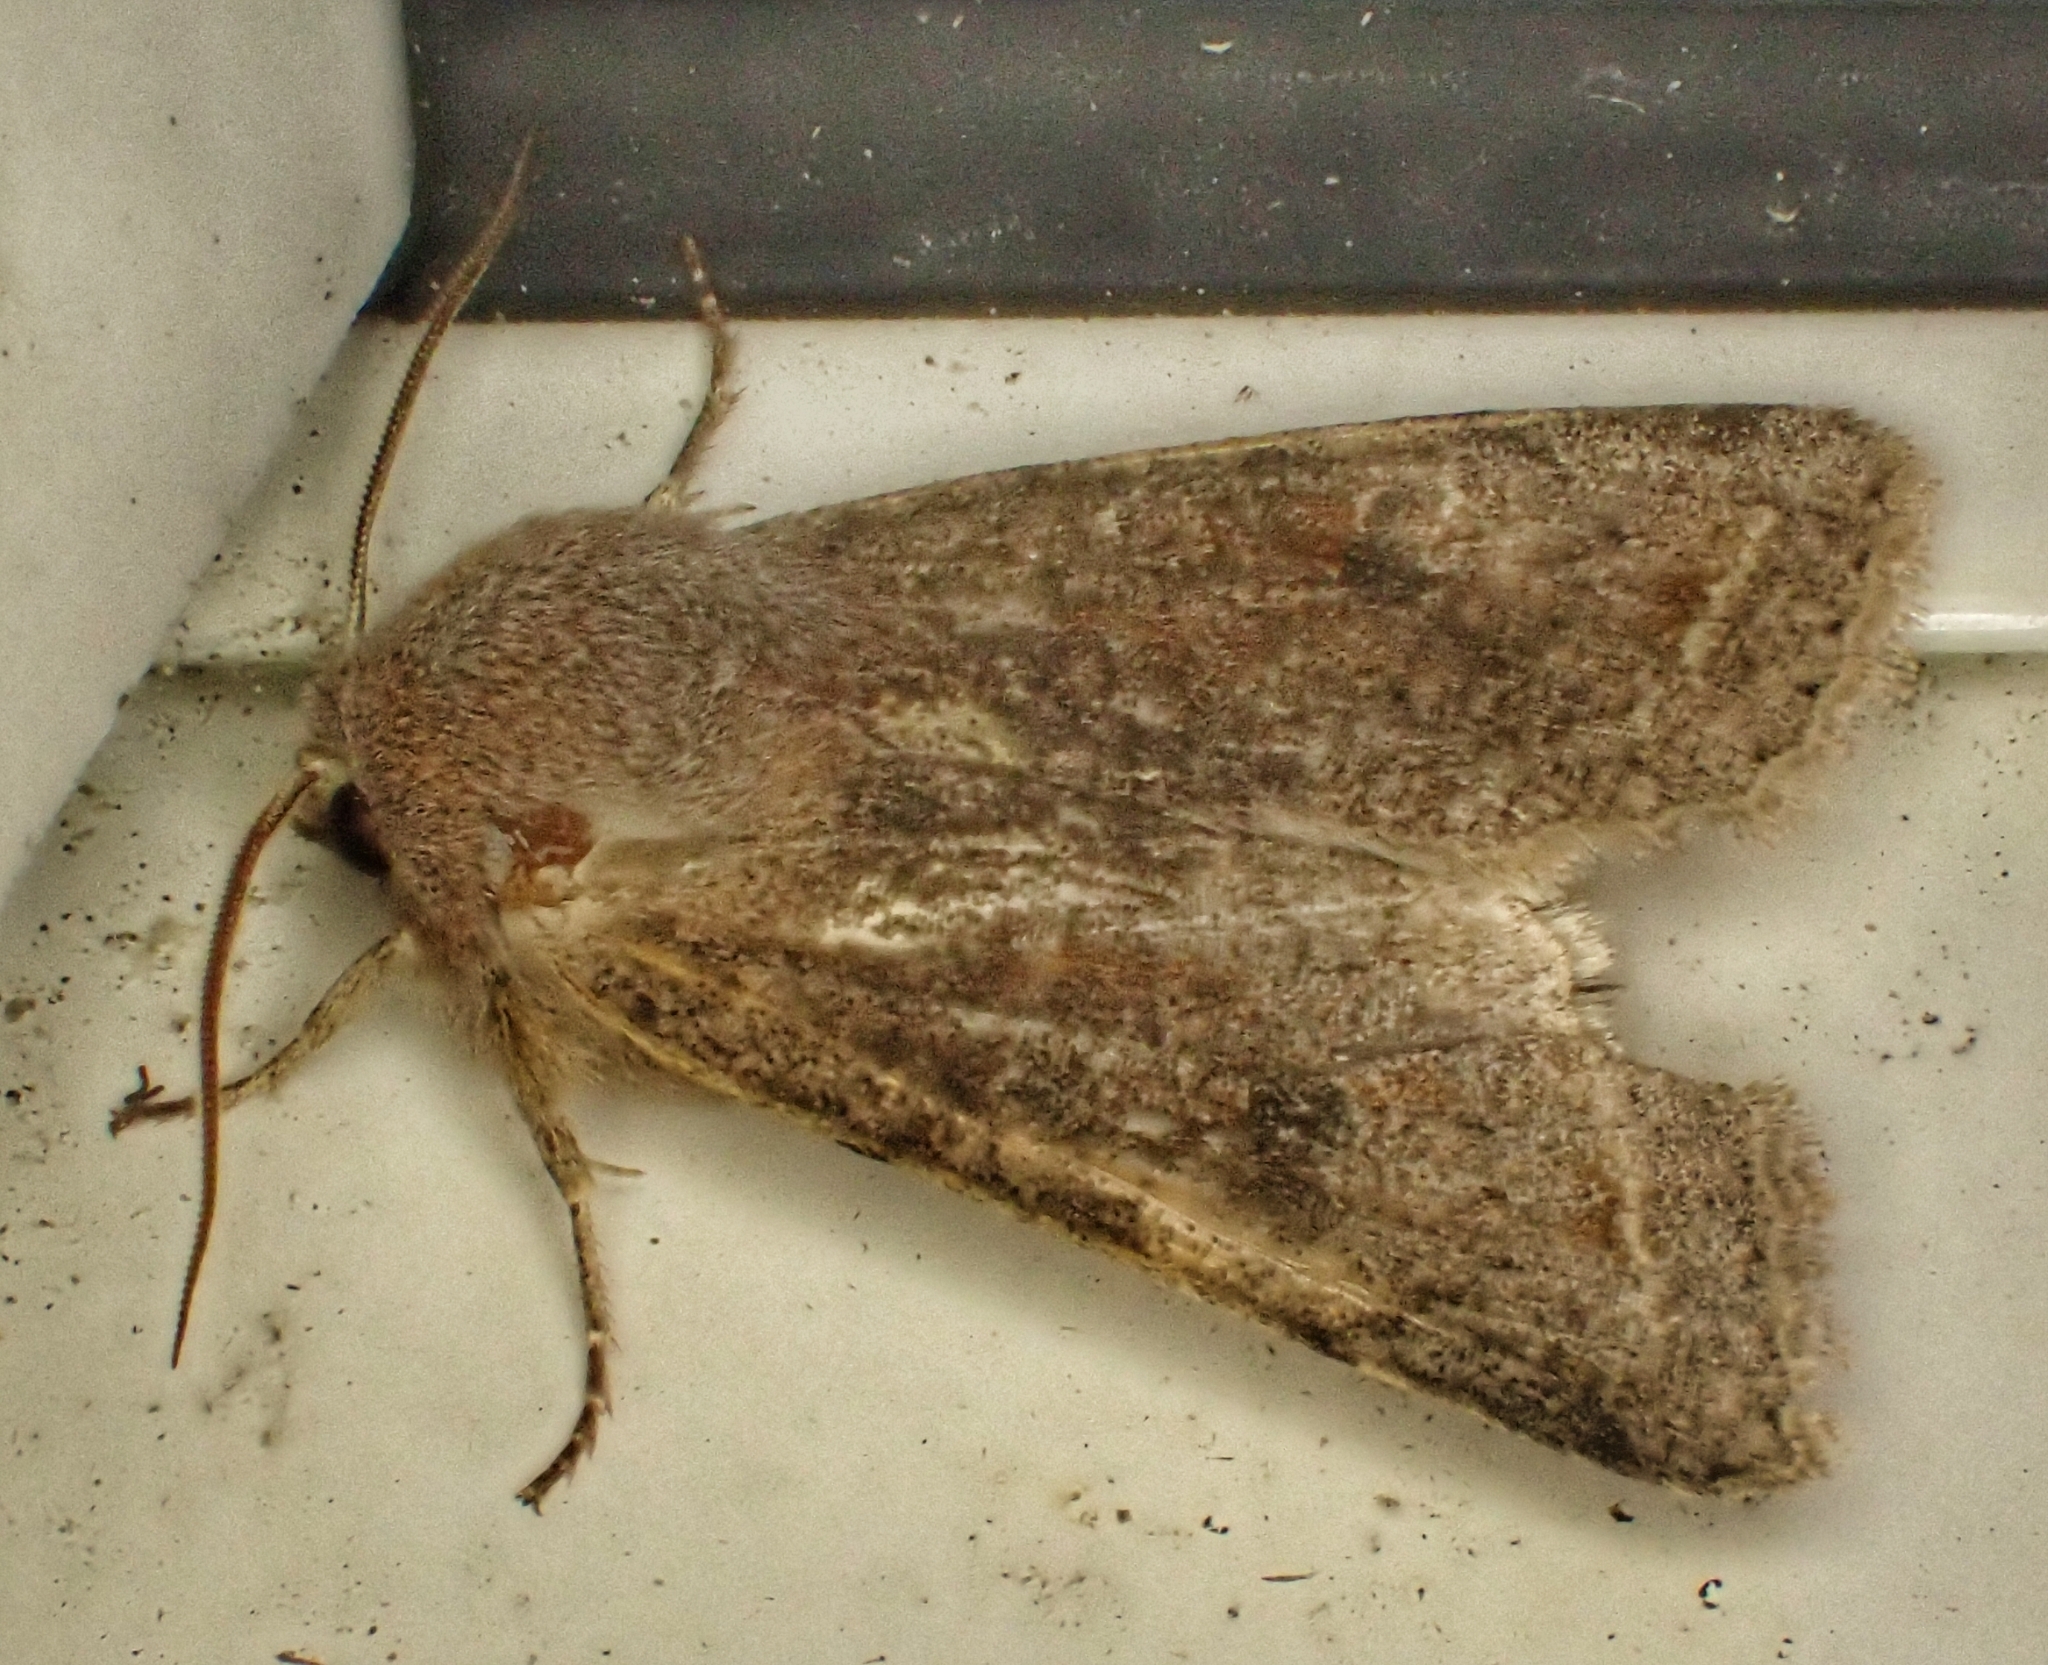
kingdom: Animalia
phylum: Arthropoda
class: Insecta
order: Lepidoptera
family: Noctuidae
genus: Orthosia
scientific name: Orthosia incerta
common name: Clouded drab
